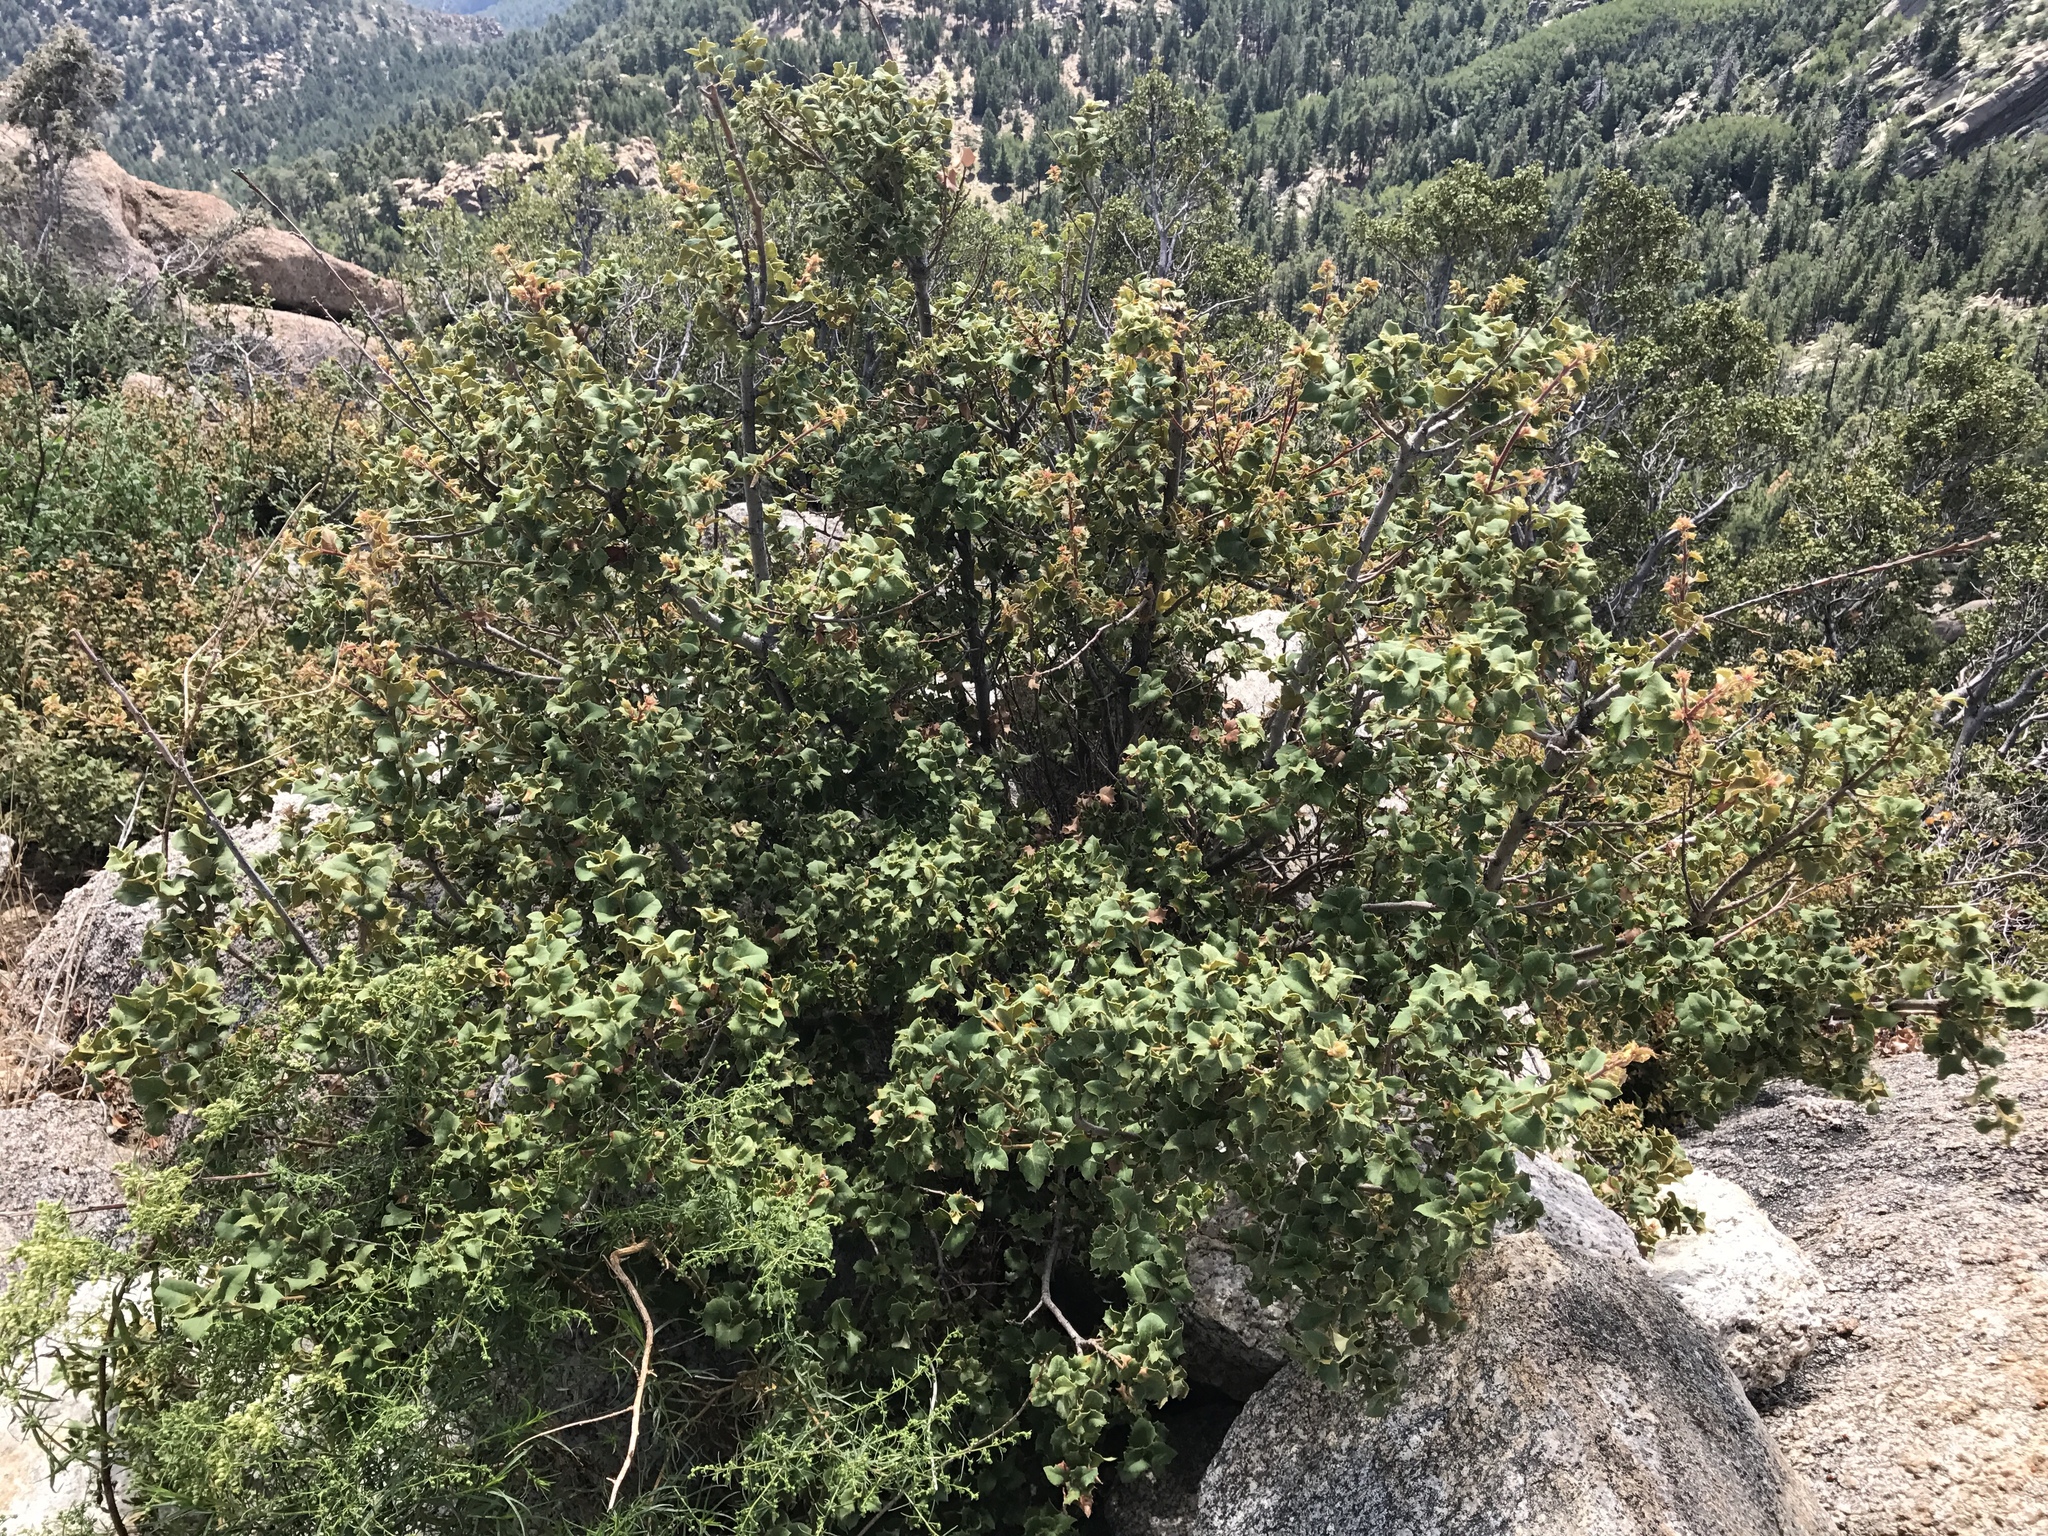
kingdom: Plantae
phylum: Tracheophyta
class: Magnoliopsida
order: Fagales
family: Fagaceae
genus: Quercus
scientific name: Quercus turbinella
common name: Sonoran scrub oak
